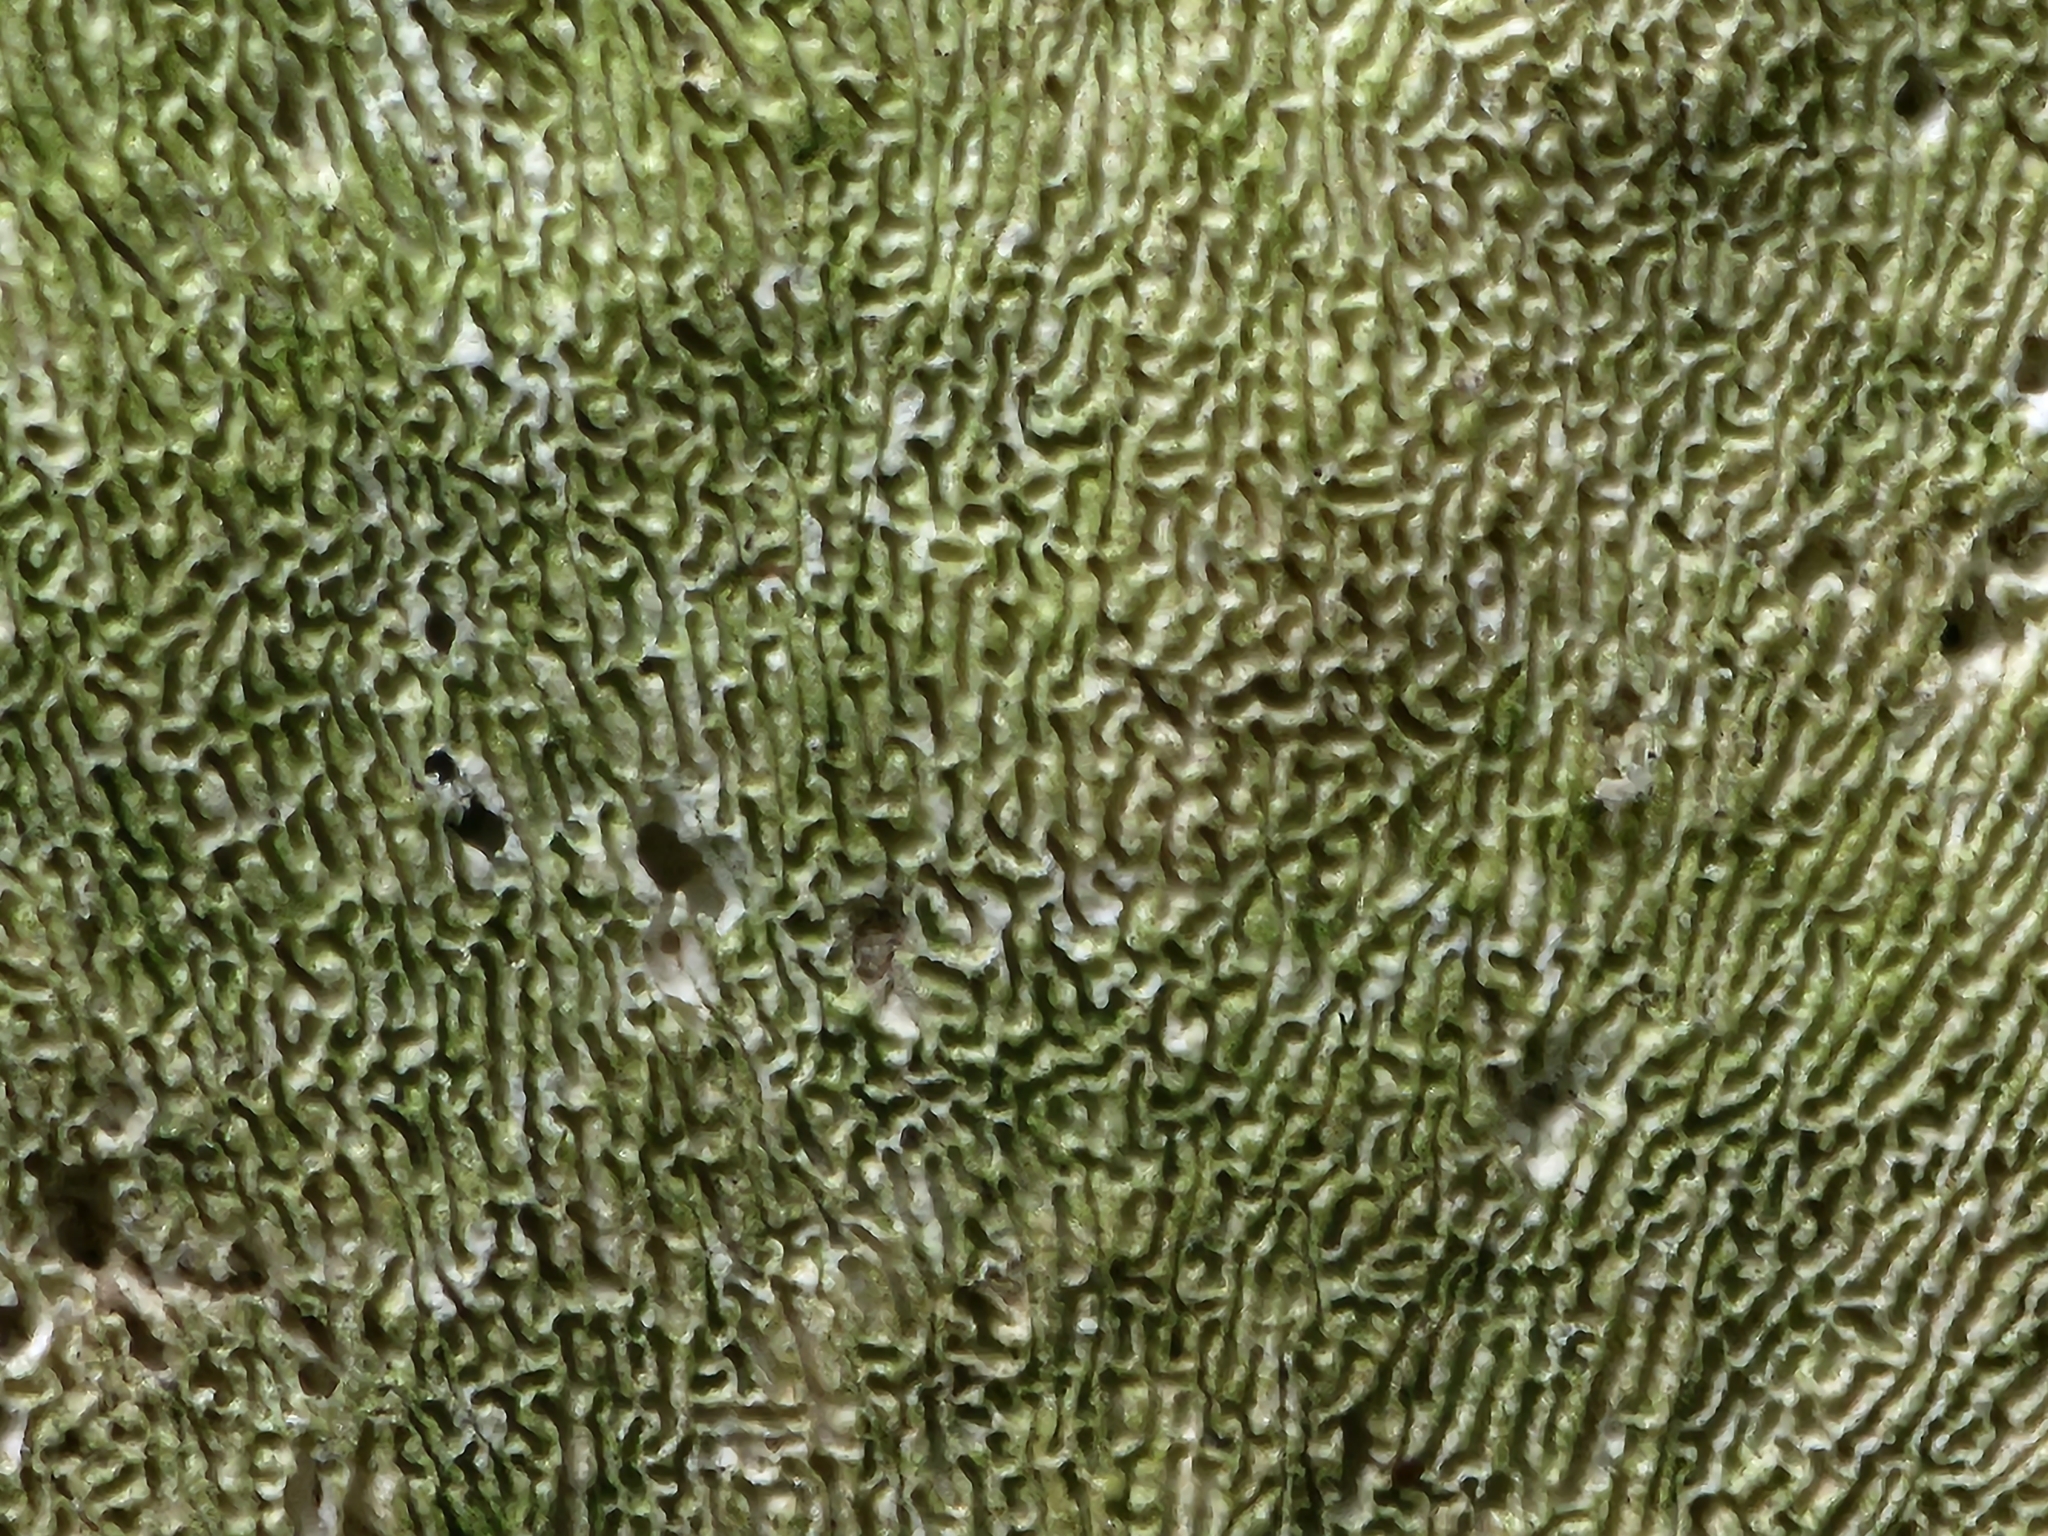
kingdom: Fungi
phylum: Basidiomycota
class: Agaricomycetes
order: Polyporales
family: Polyporaceae
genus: Trametes
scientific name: Trametes gibbosa
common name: Lumpy bracket
